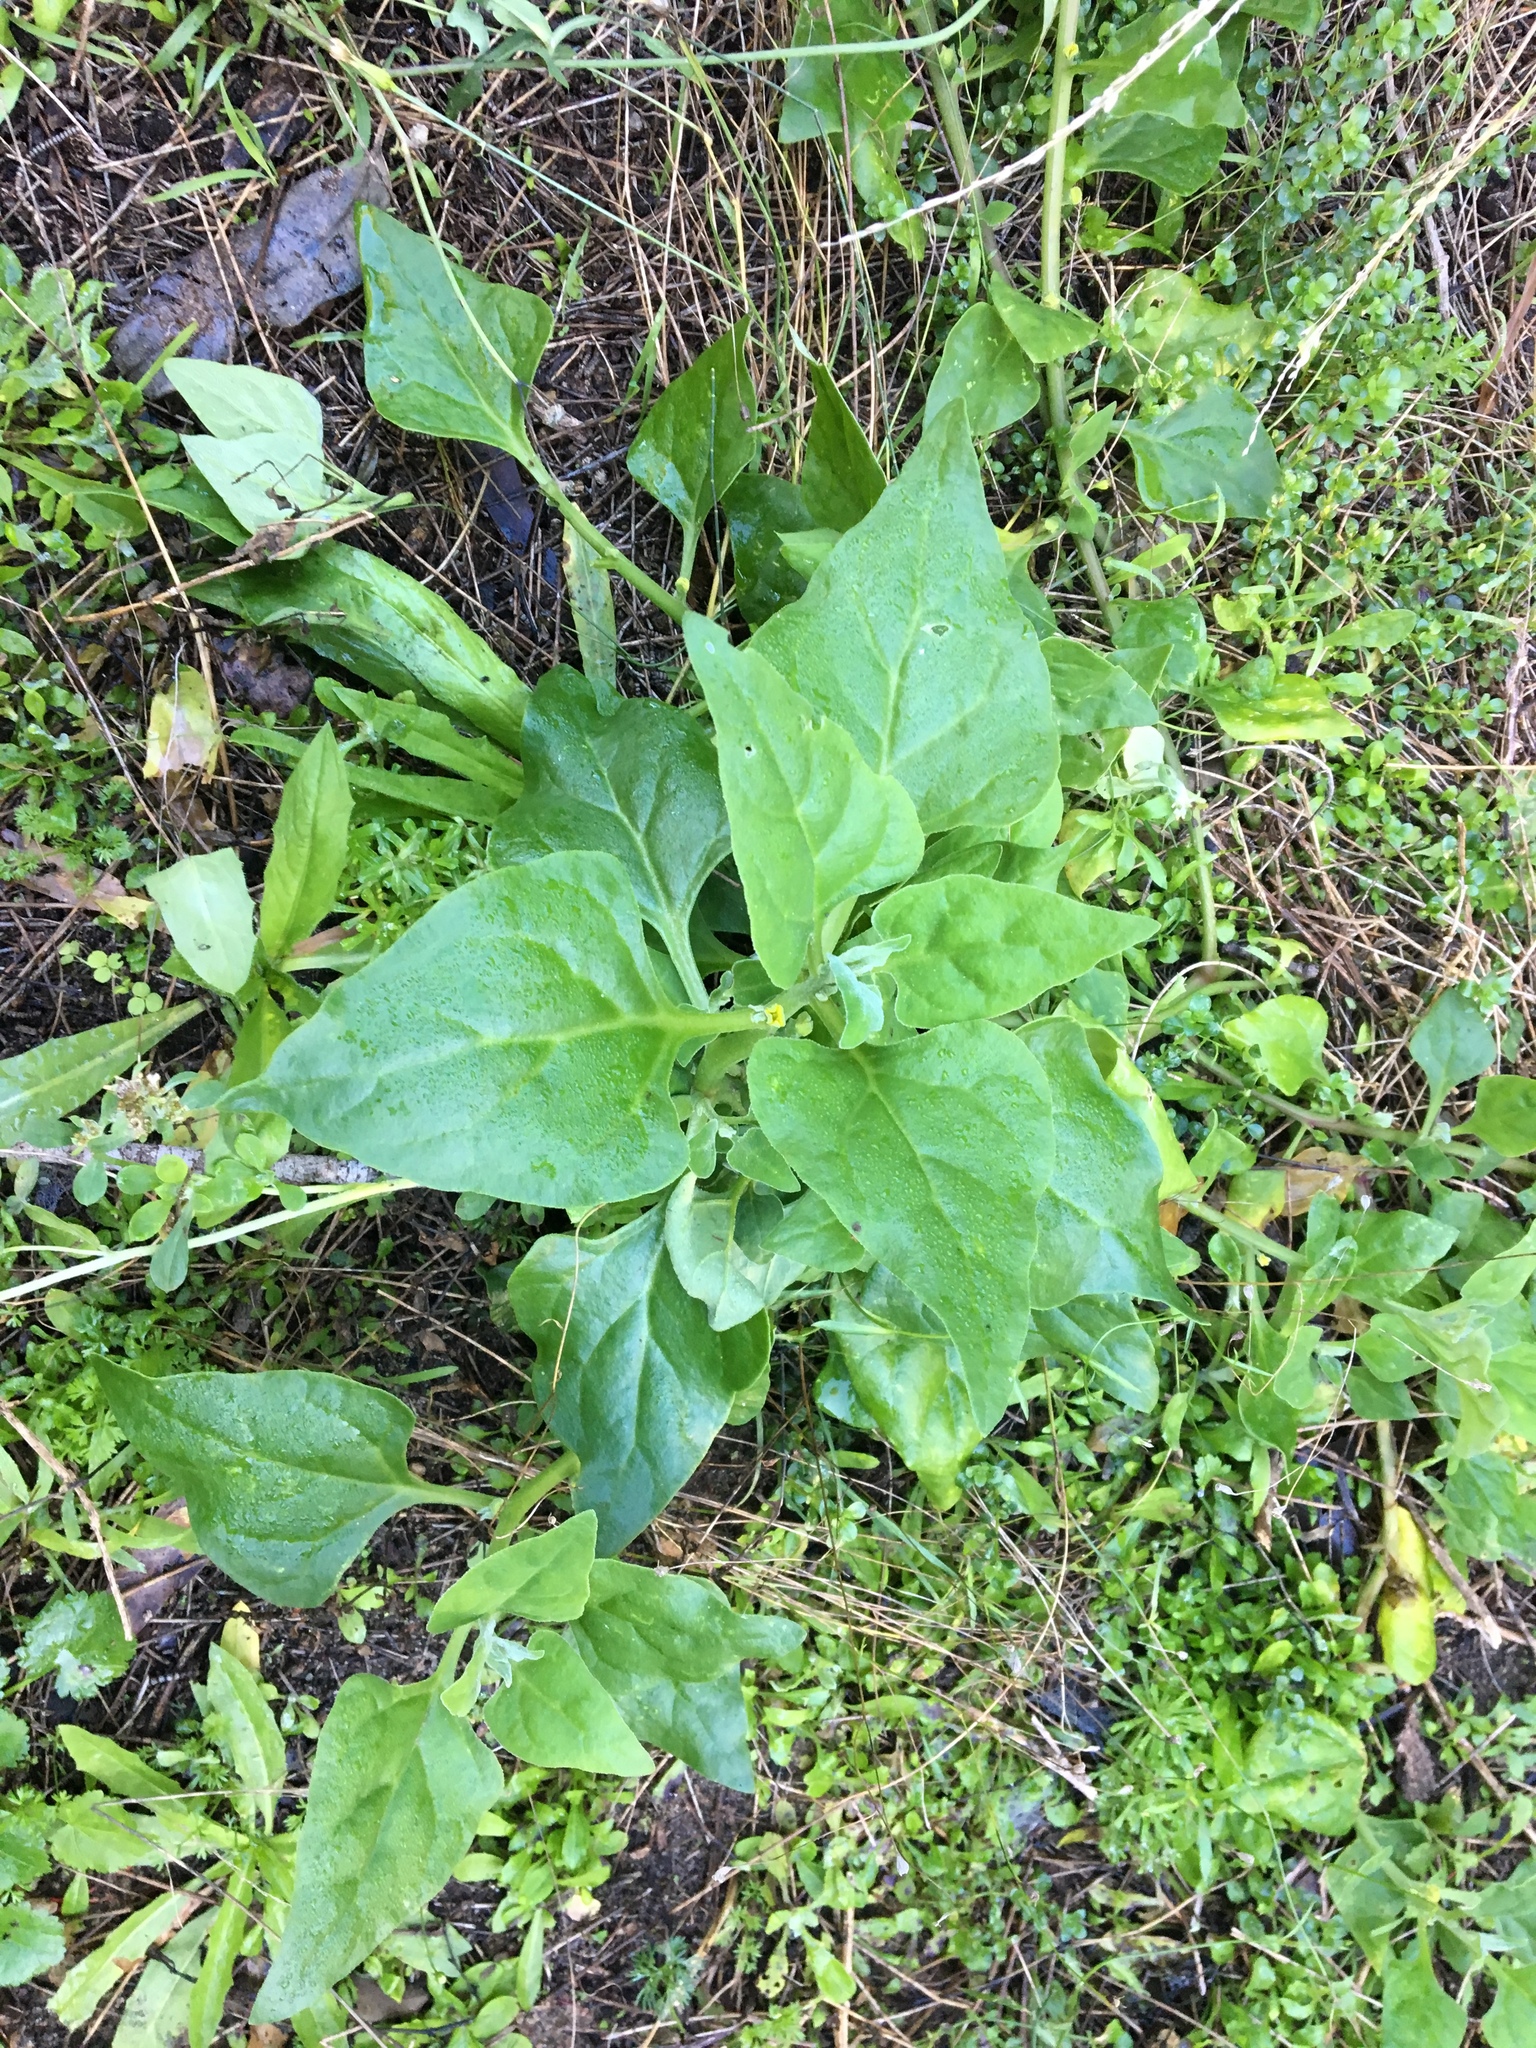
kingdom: Plantae
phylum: Tracheophyta
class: Magnoliopsida
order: Caryophyllales
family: Aizoaceae
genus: Tetragonia
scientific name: Tetragonia tetragonoides
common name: New zealand-spinach
